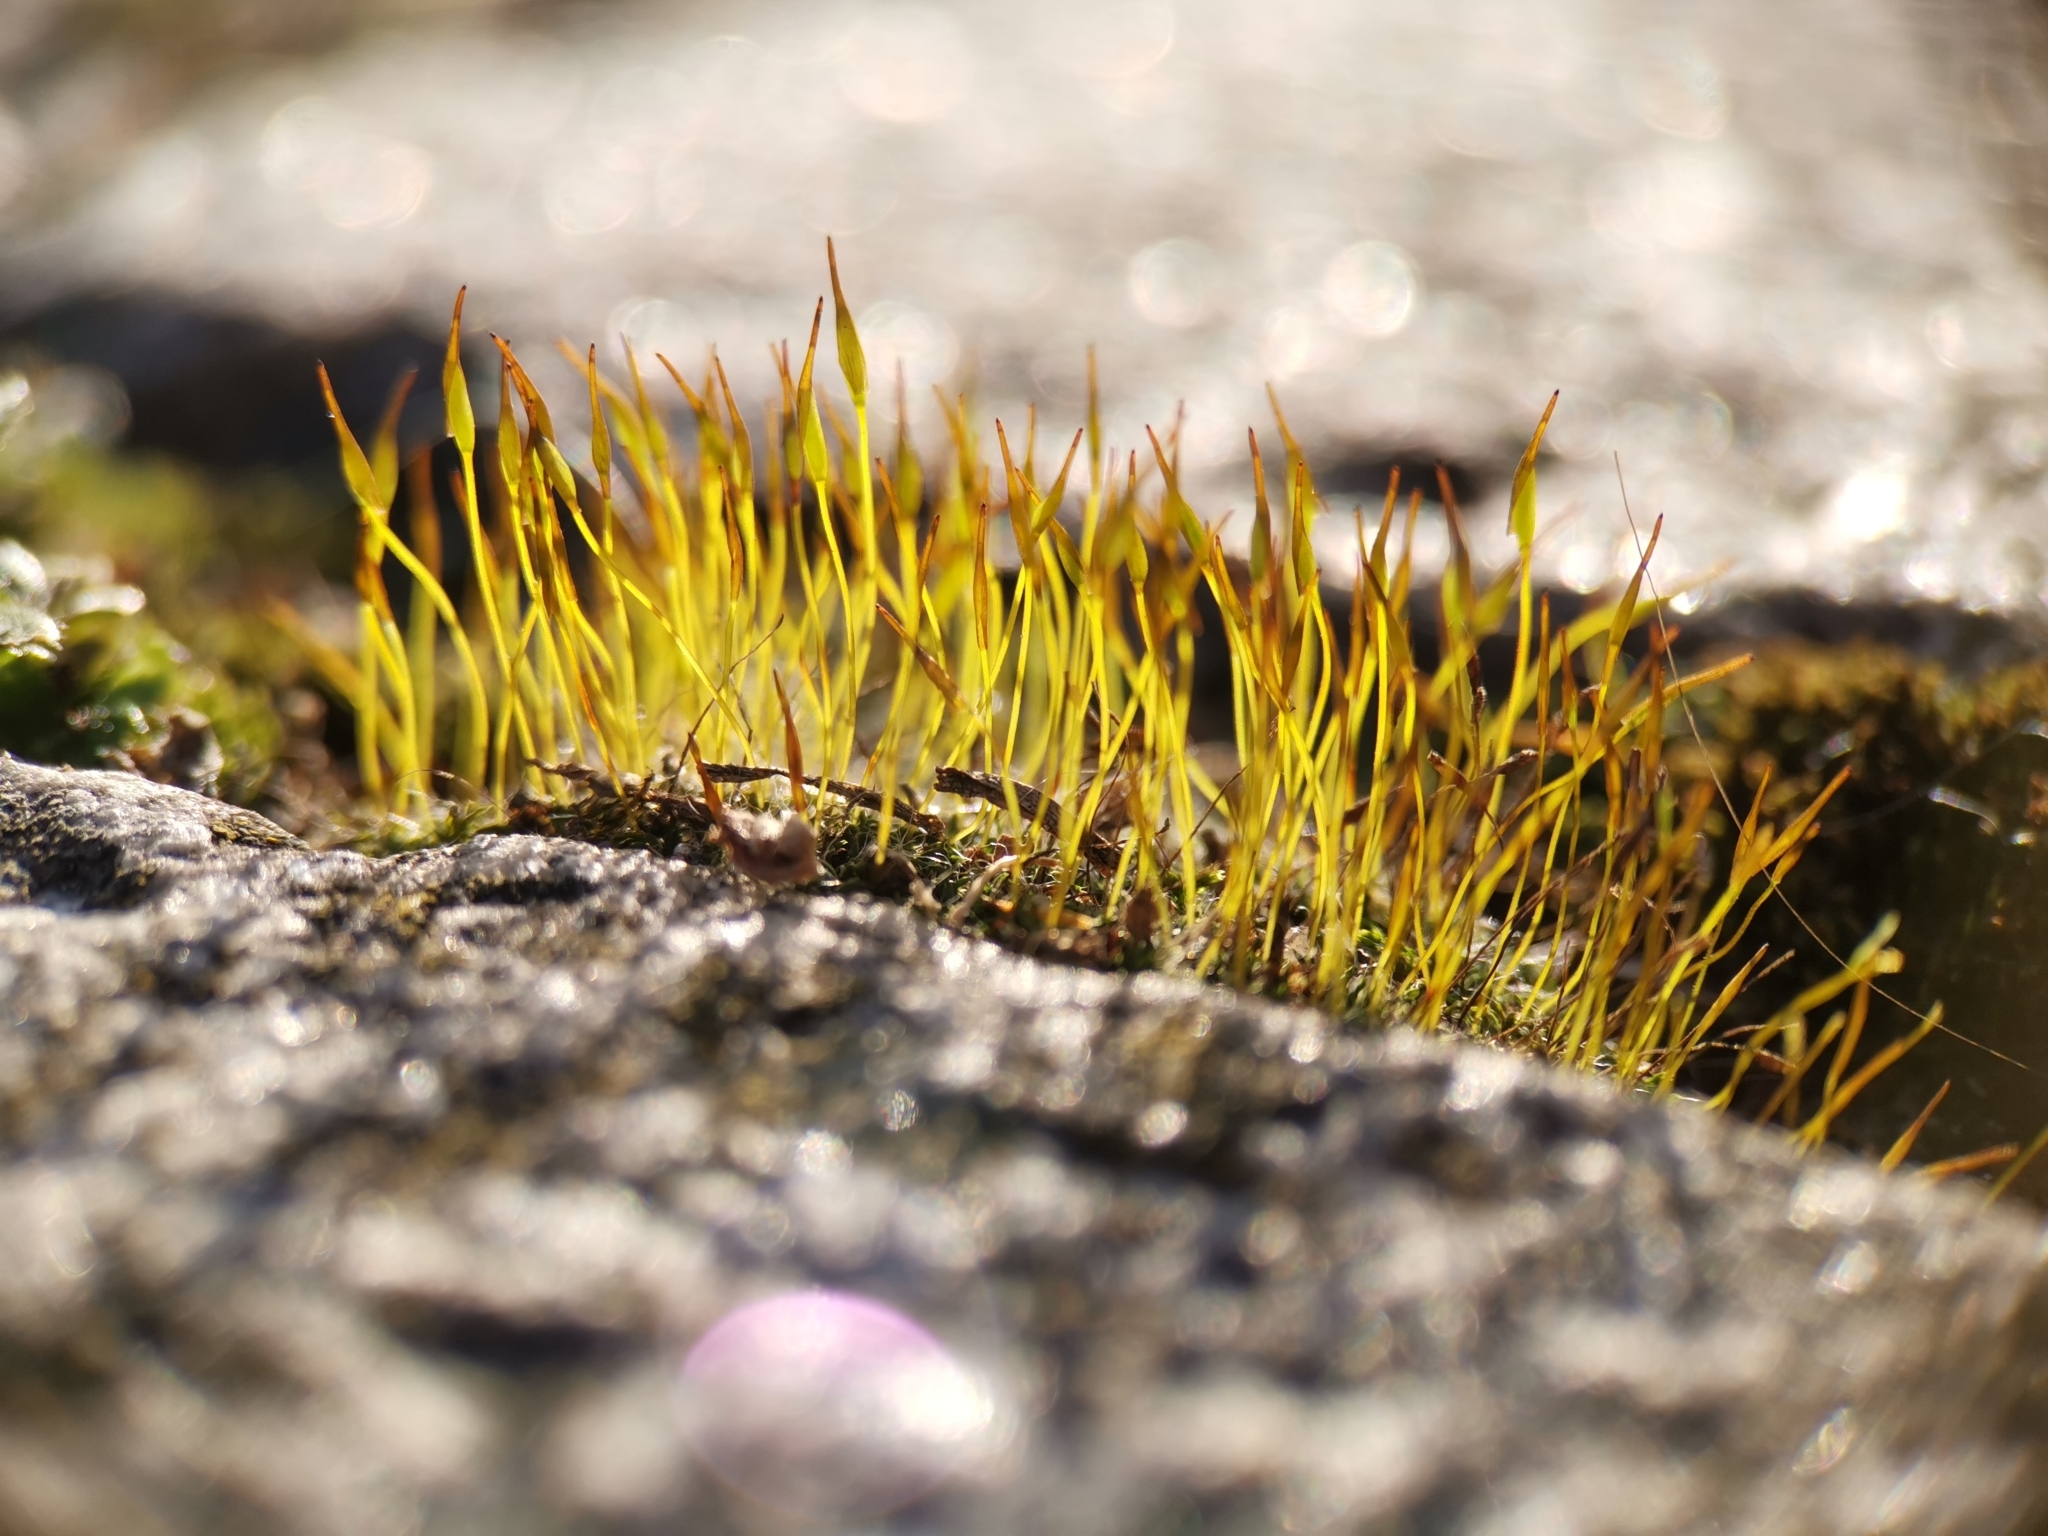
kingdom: Plantae
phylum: Bryophyta
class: Bryopsida
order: Pottiales
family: Pottiaceae
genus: Tortula
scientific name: Tortula muralis
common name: Wall screw-moss
